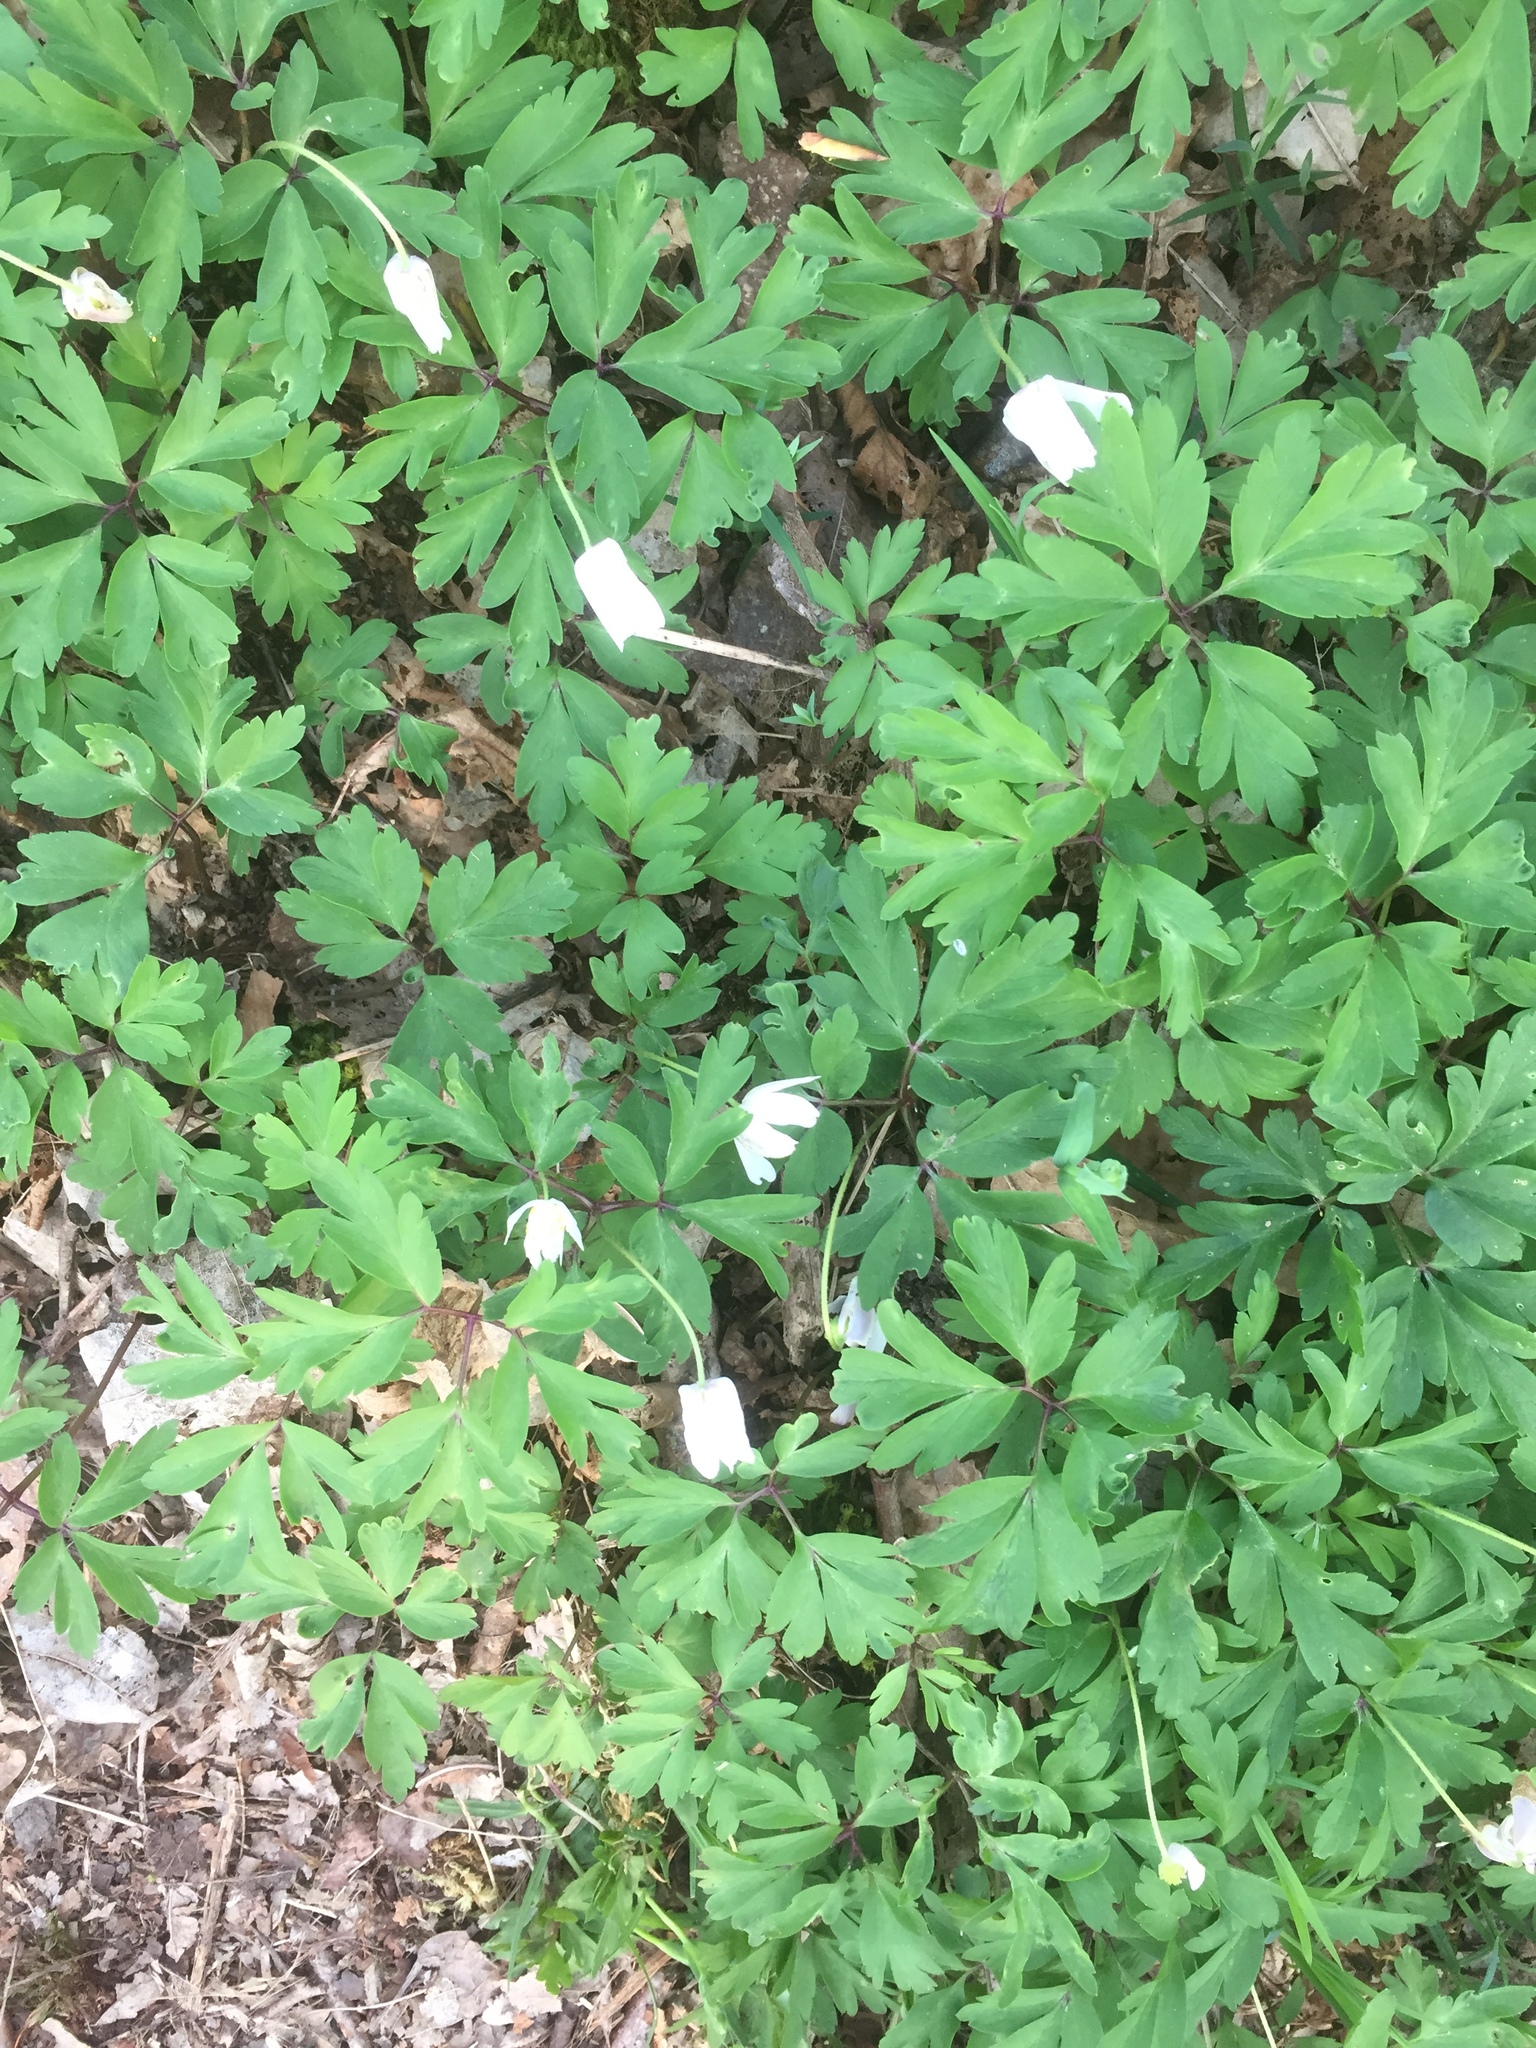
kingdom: Plantae
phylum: Tracheophyta
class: Magnoliopsida
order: Ranunculales
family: Ranunculaceae
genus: Anemone
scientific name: Anemone nemorosa
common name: Wood anemone
